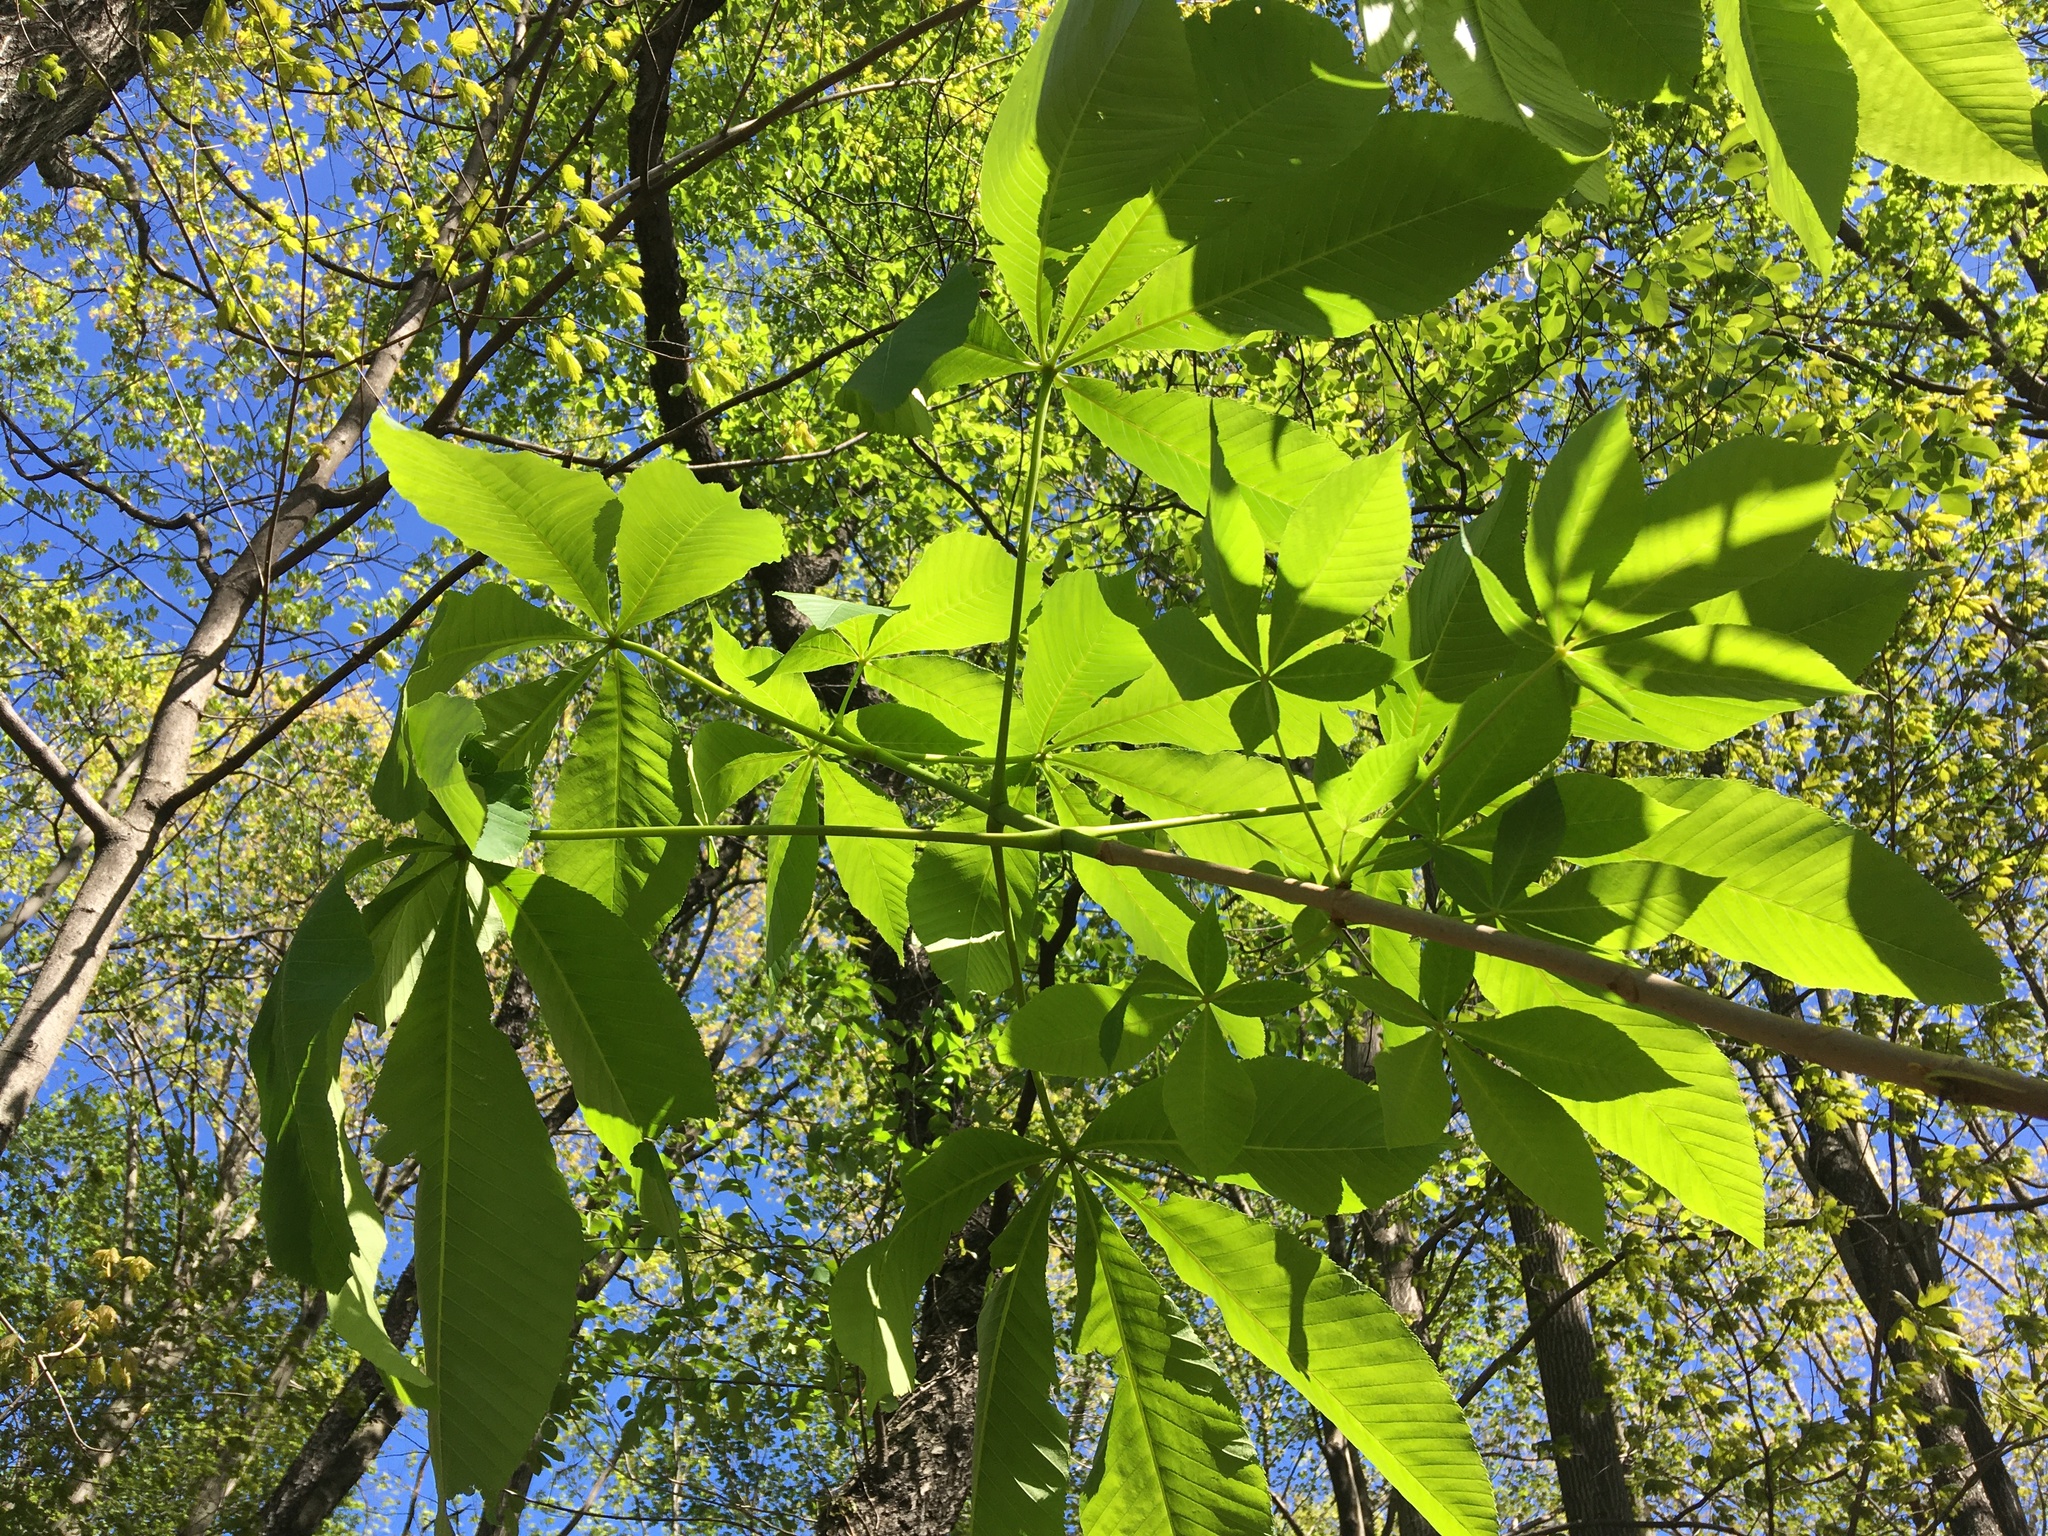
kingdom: Plantae
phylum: Tracheophyta
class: Magnoliopsida
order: Sapindales
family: Sapindaceae
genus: Aesculus
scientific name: Aesculus flava
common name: Yellow buckeye
